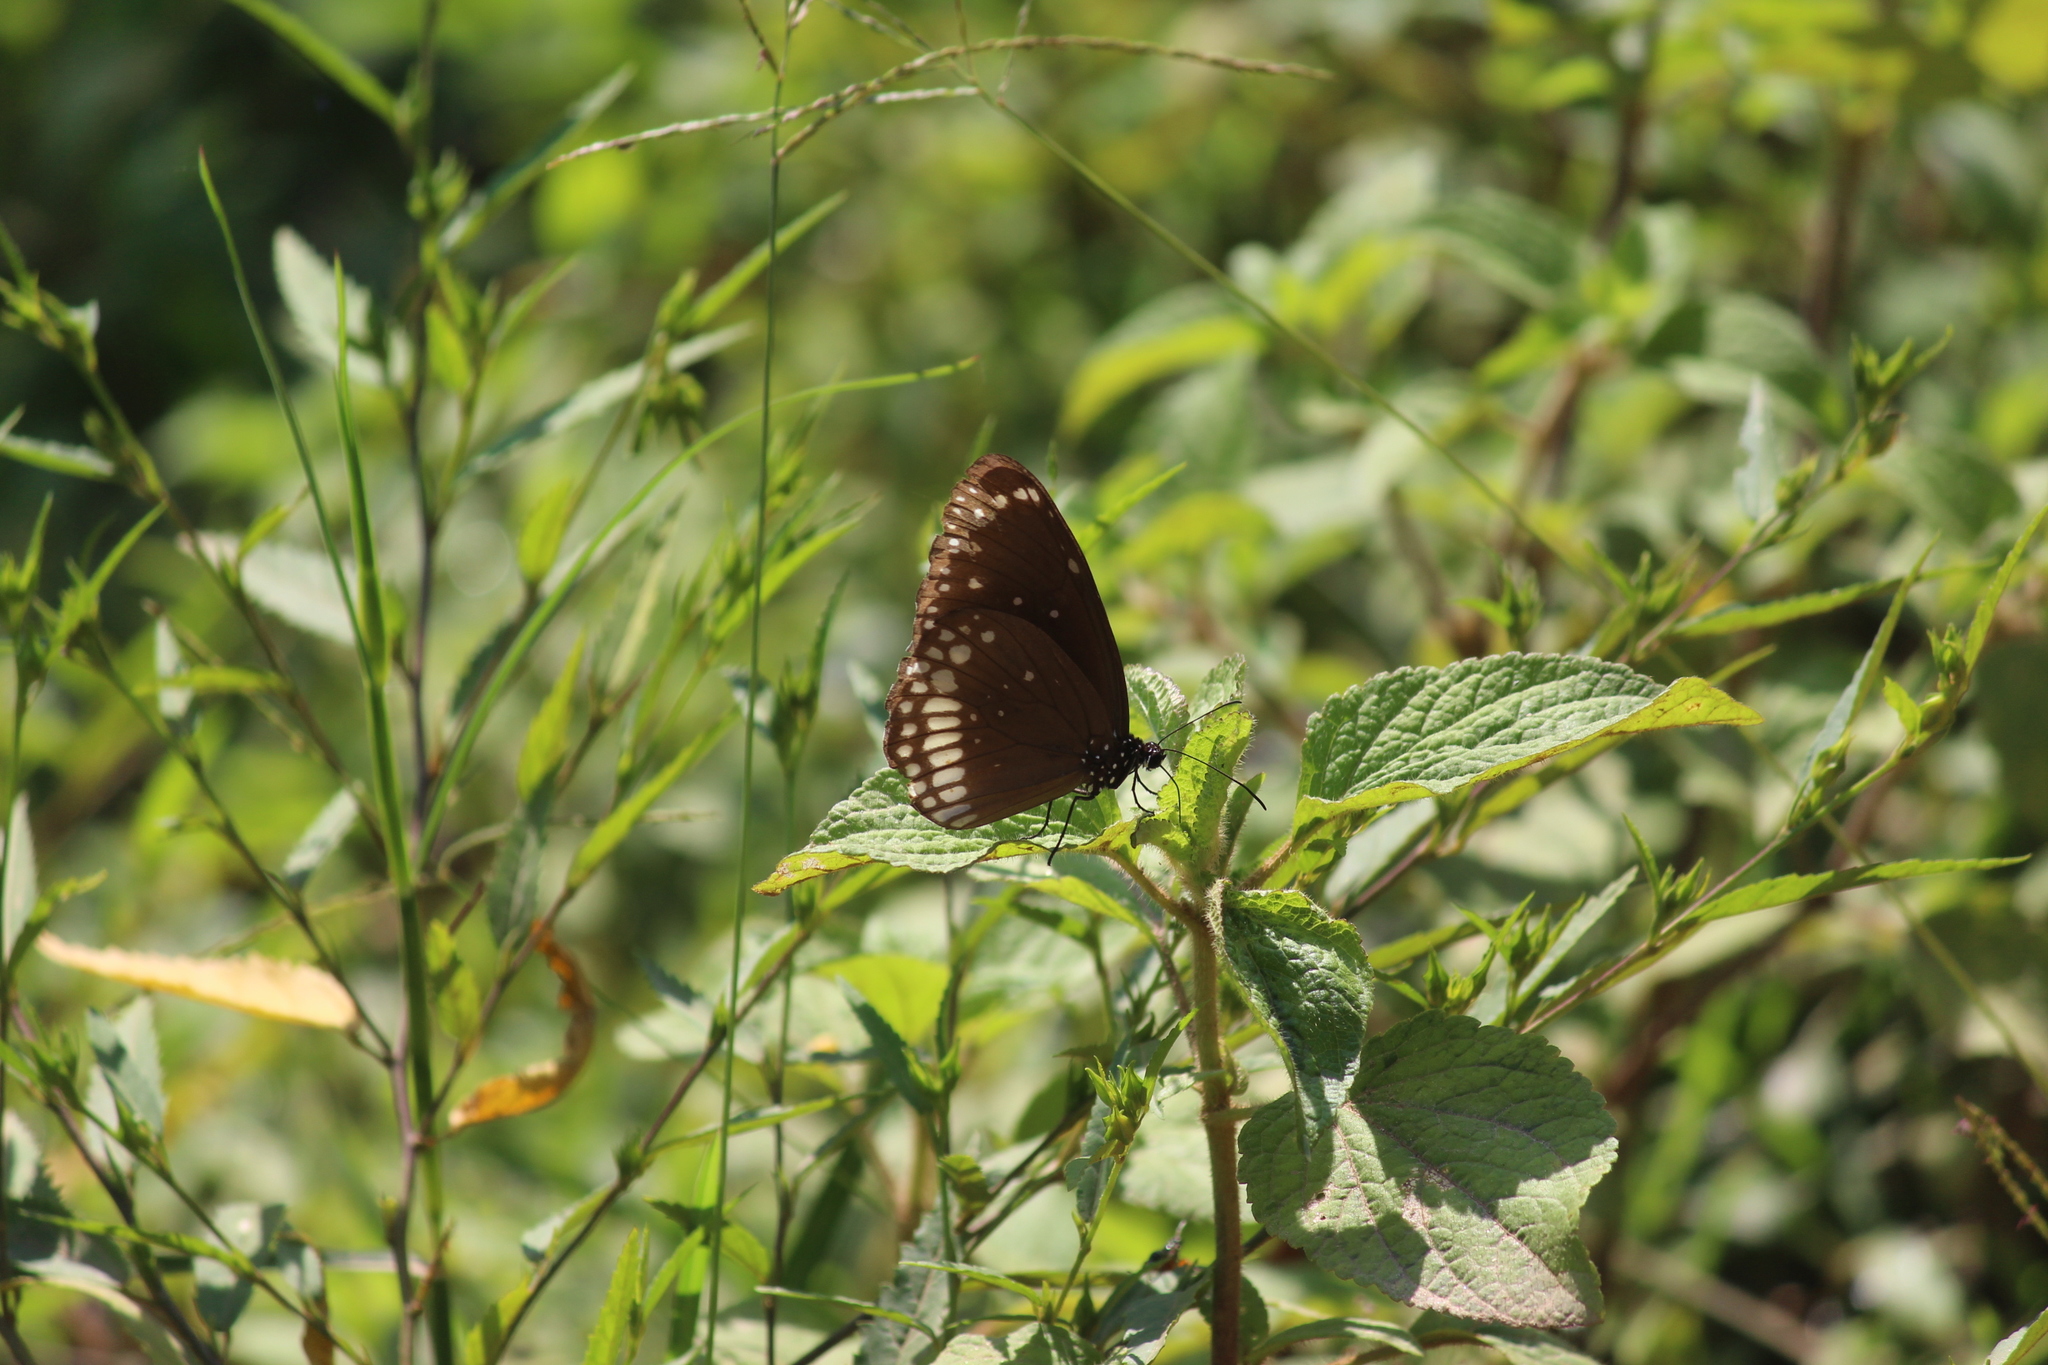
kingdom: Animalia
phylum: Arthropoda
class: Insecta
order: Lepidoptera
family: Nymphalidae
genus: Euploea
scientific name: Euploea core
